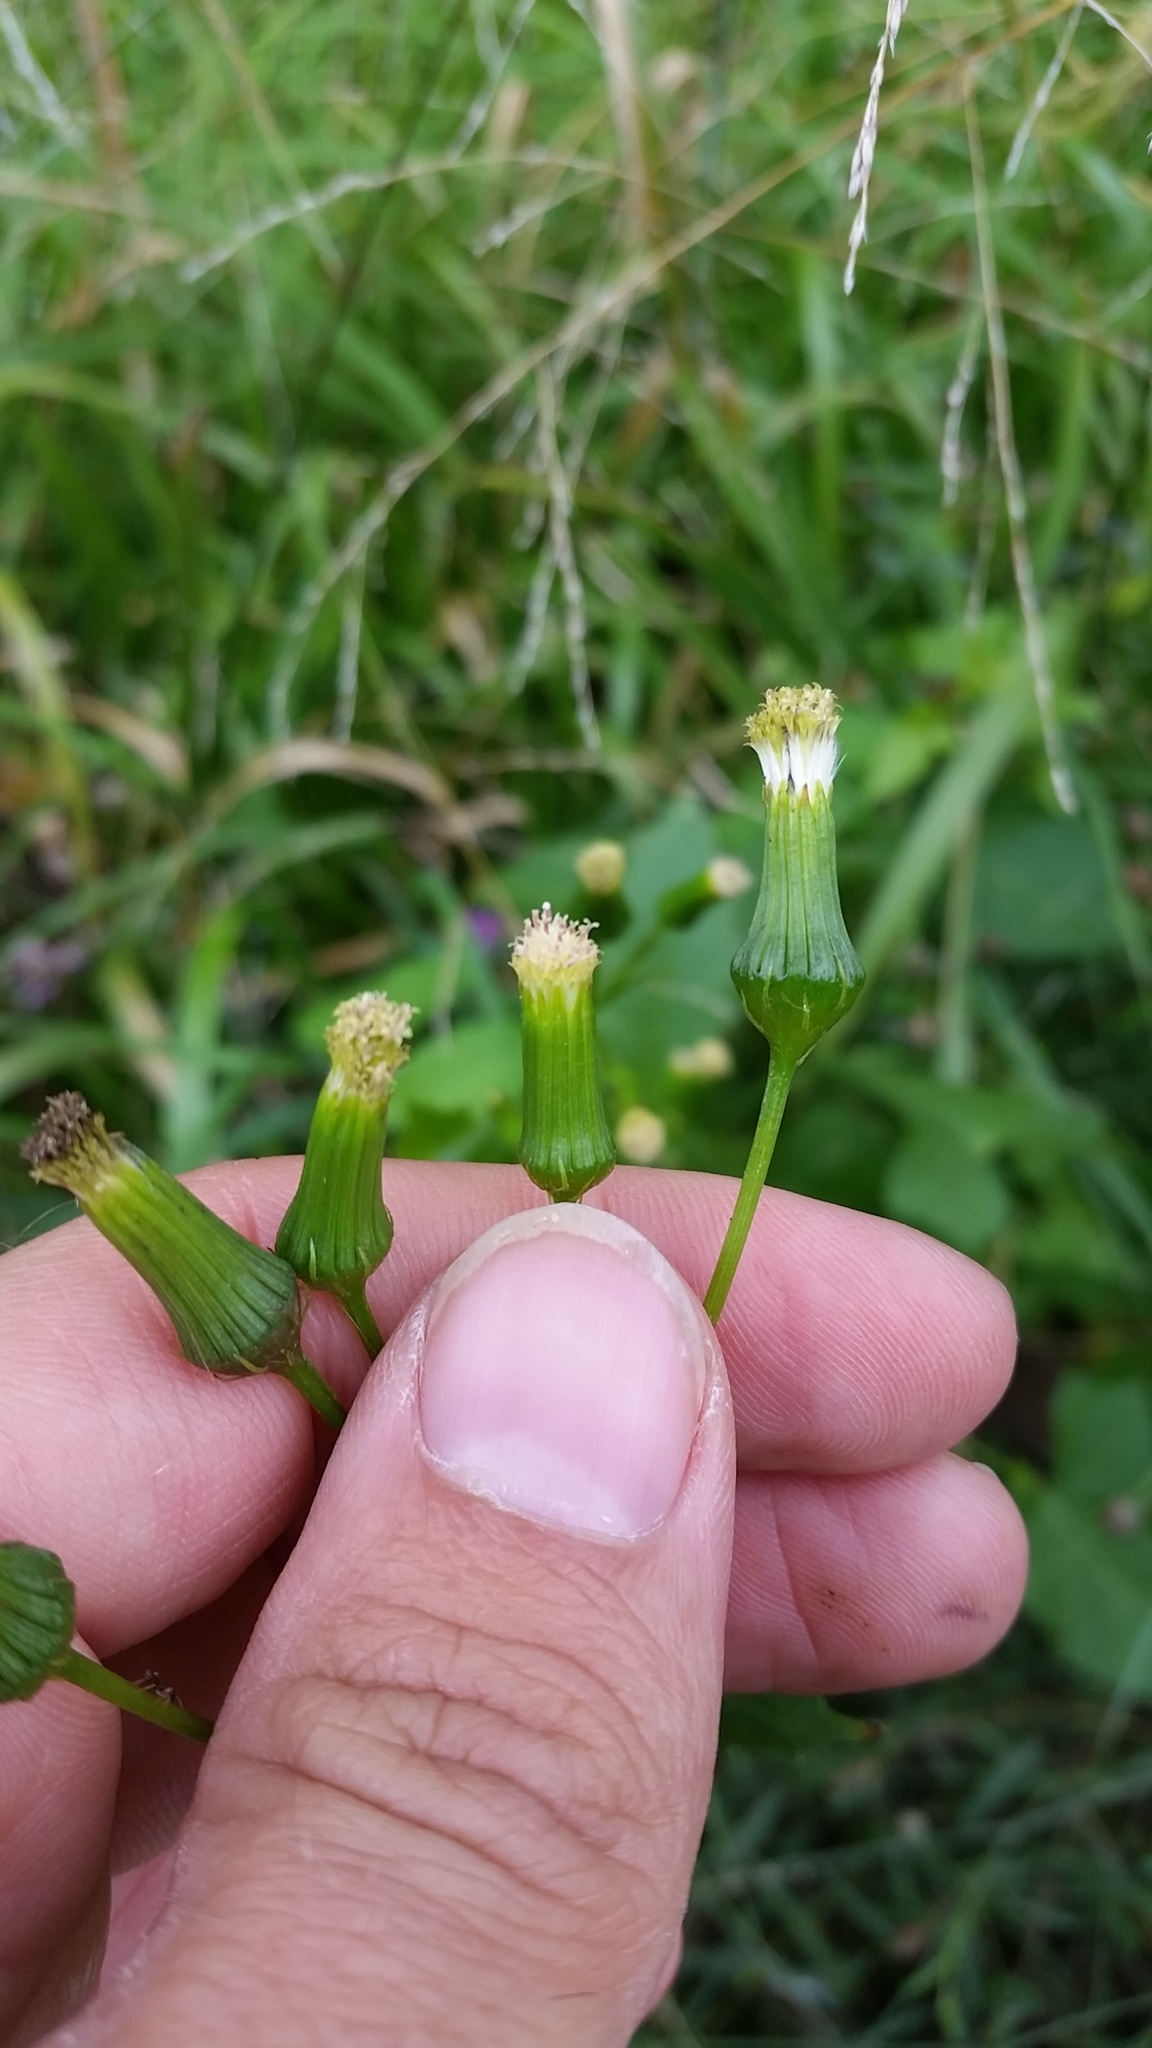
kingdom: Plantae
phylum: Tracheophyta
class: Magnoliopsida
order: Asterales
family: Asteraceae
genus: Erechtites
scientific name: Erechtites hieraciifolius
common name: American burnweed
